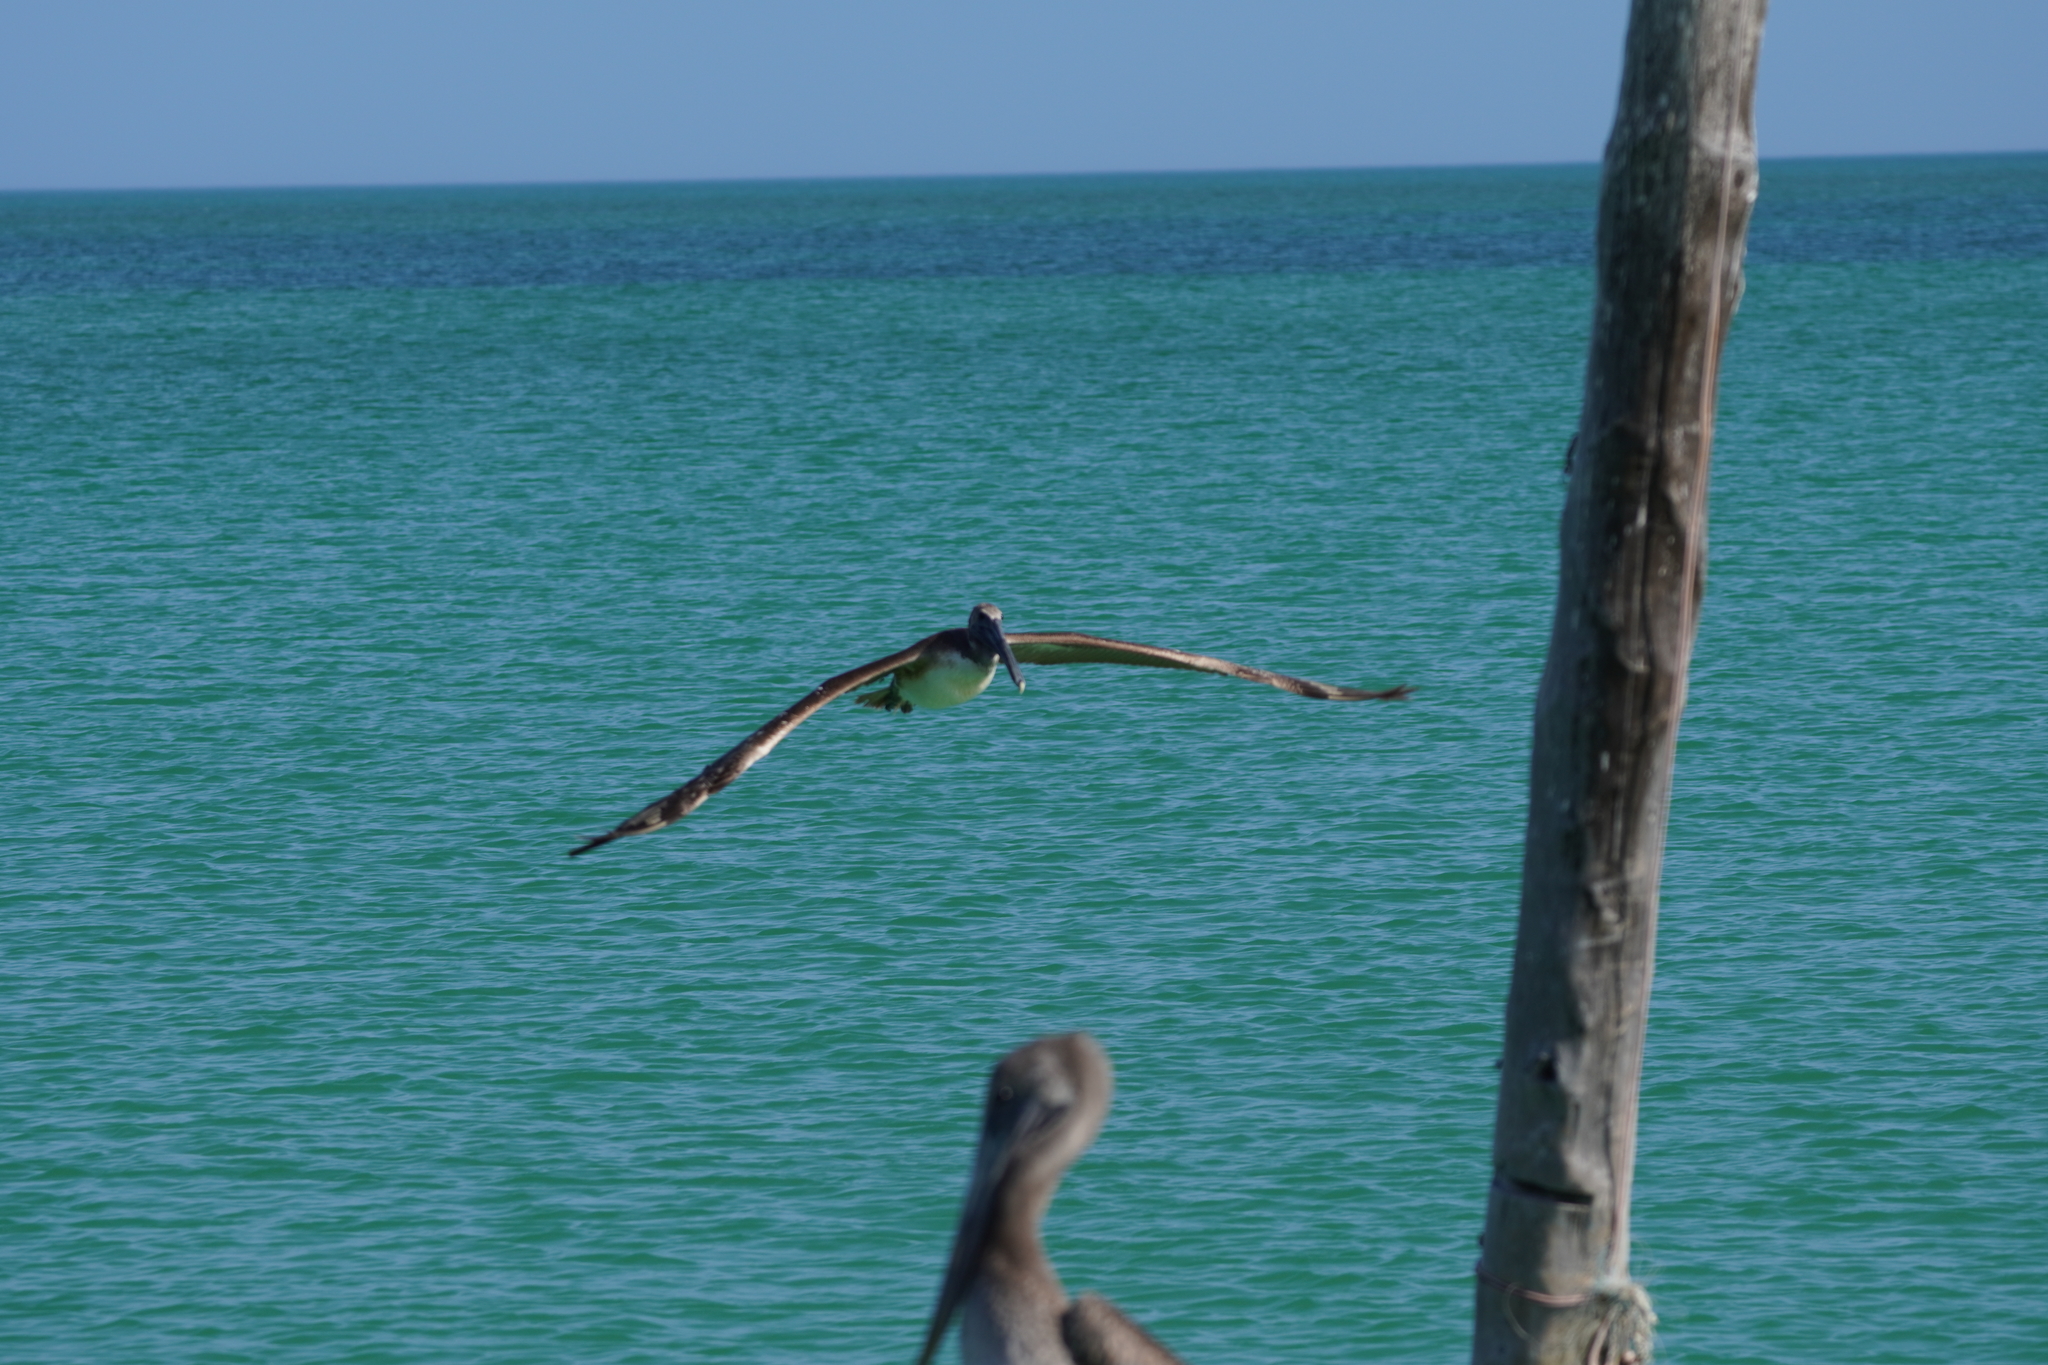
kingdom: Animalia
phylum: Chordata
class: Aves
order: Pelecaniformes
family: Pelecanidae
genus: Pelecanus
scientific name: Pelecanus occidentalis
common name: Brown pelican
